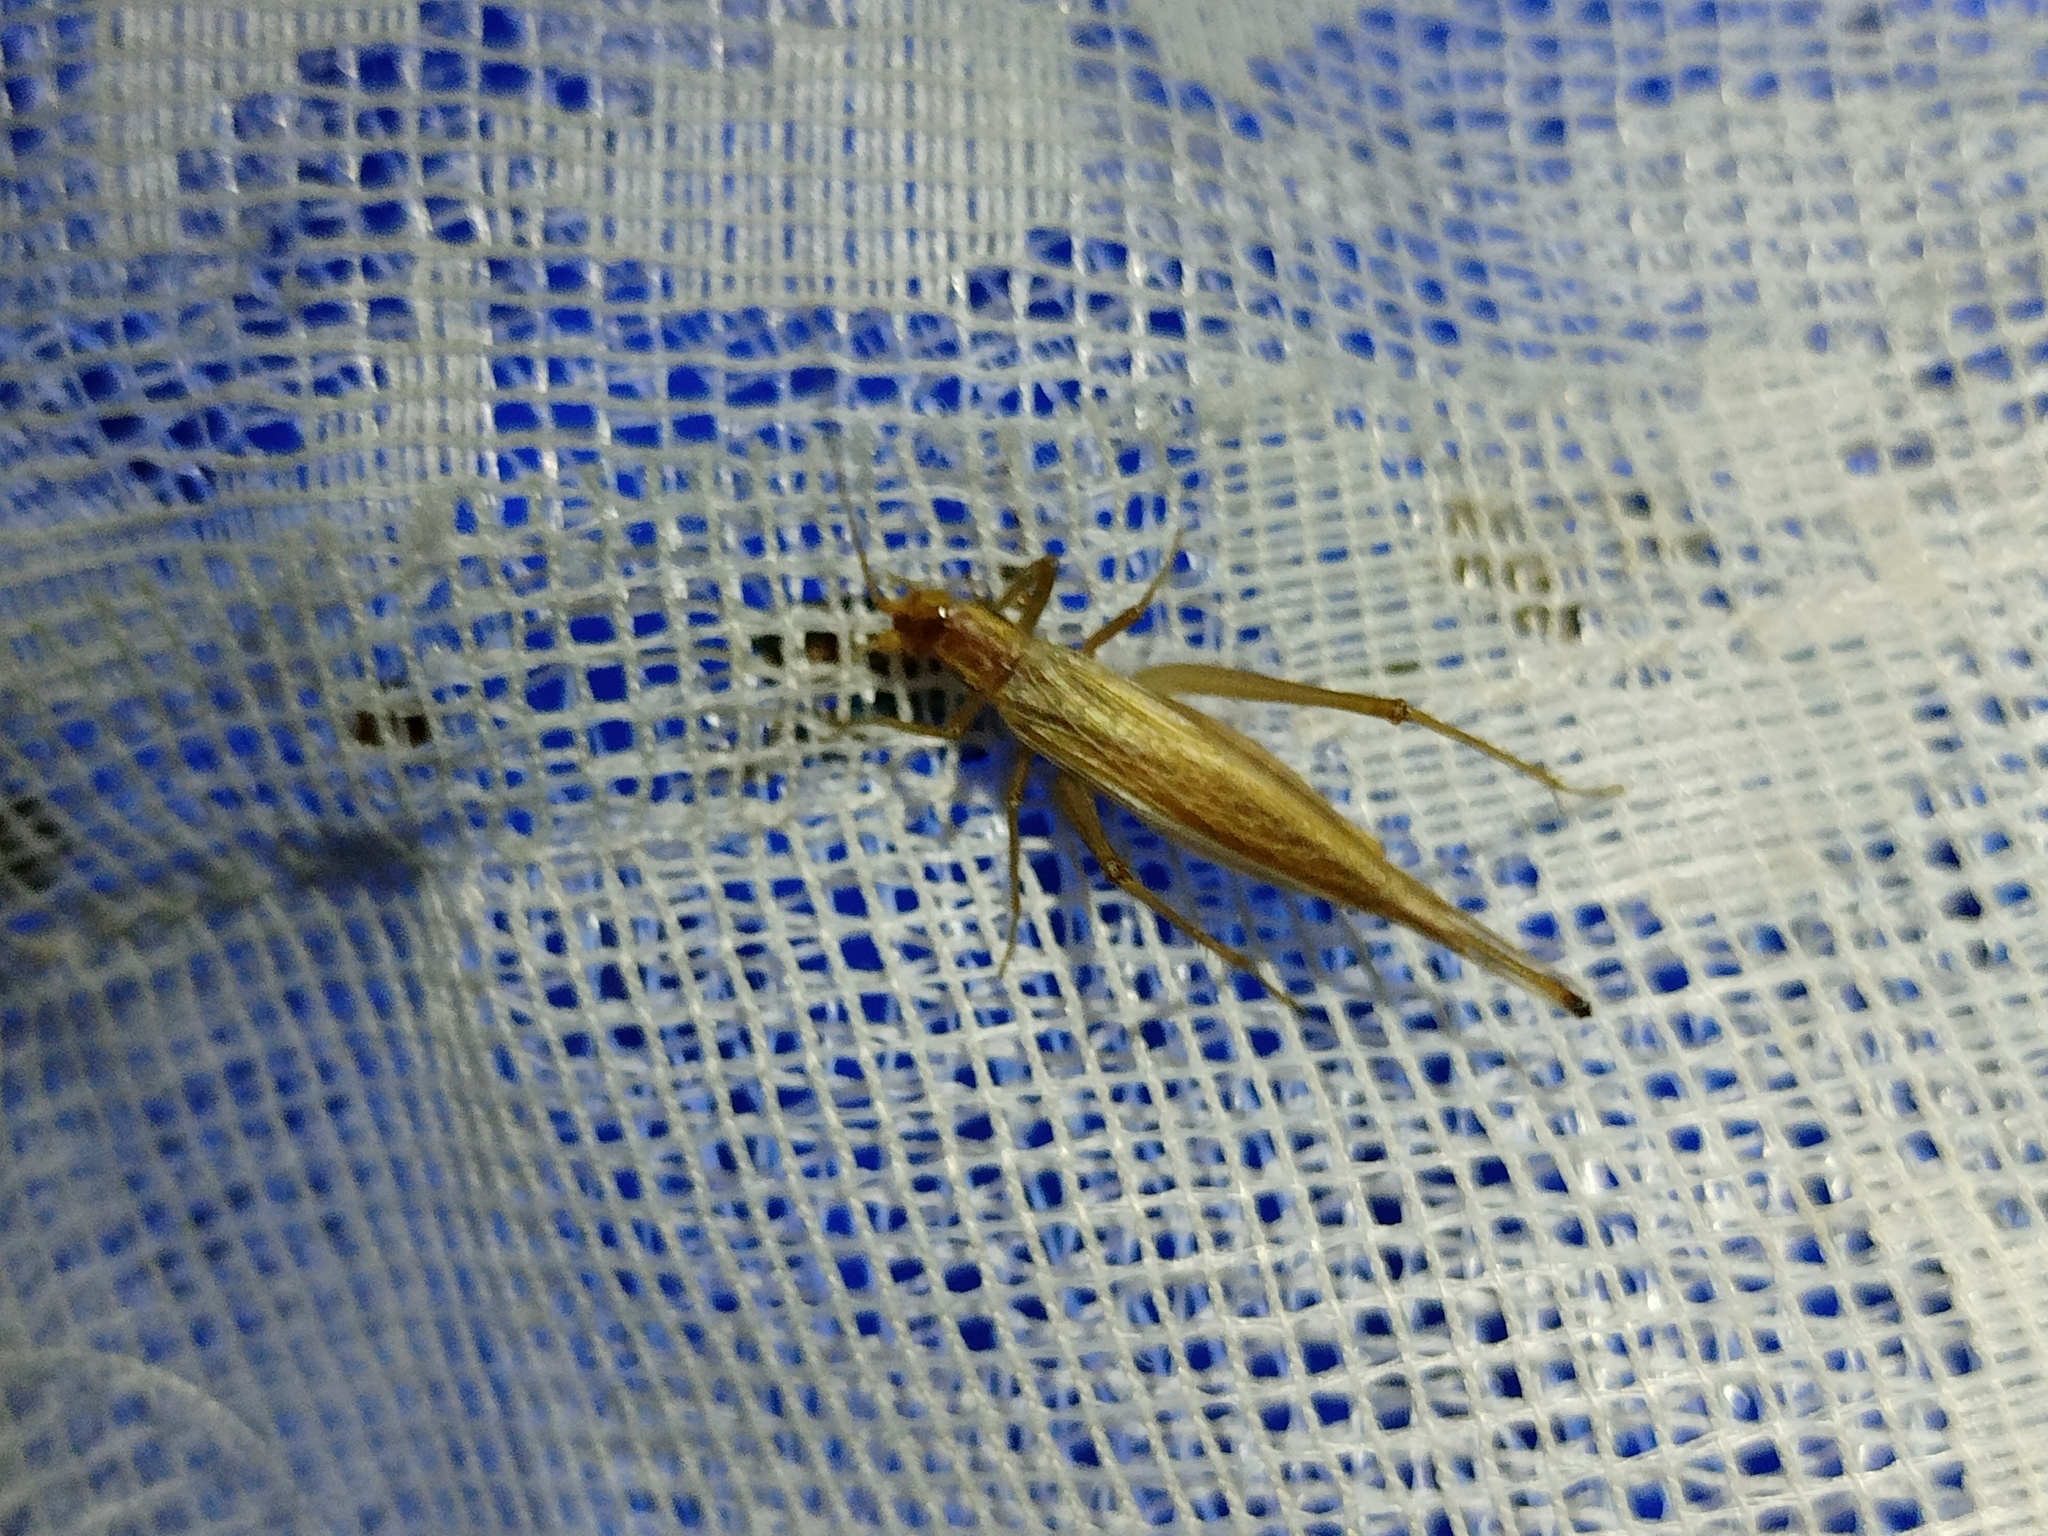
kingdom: Animalia
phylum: Arthropoda
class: Insecta
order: Orthoptera
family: Gryllidae
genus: Oecanthus
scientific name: Oecanthus pellucens
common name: Tree-cricket
